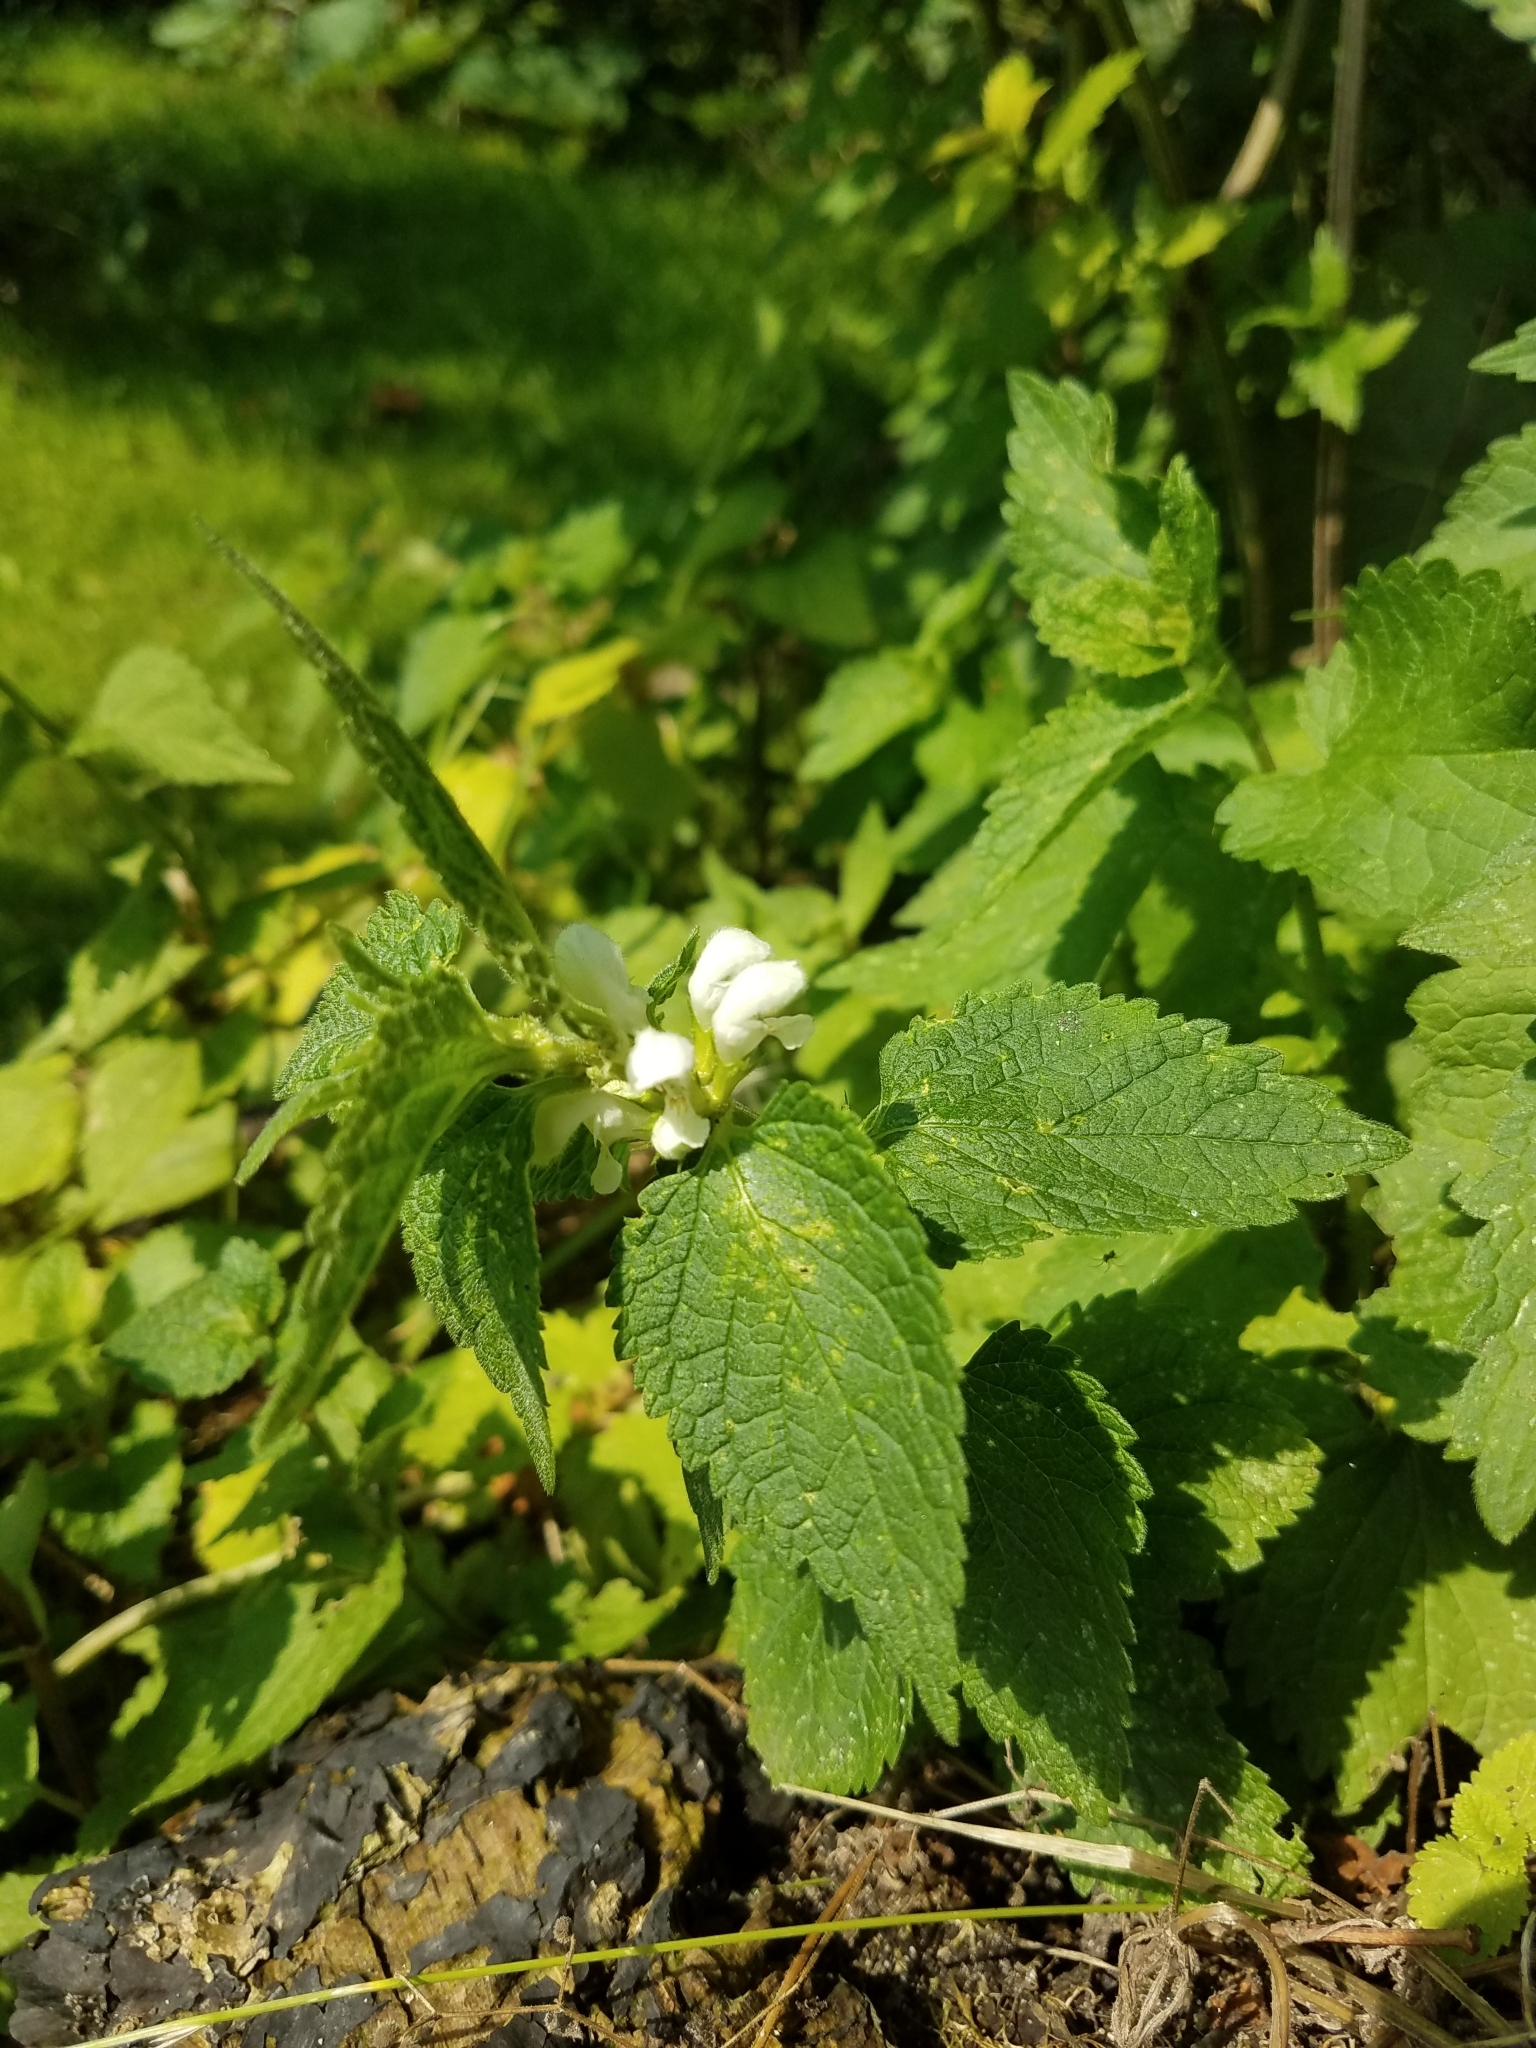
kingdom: Plantae
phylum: Tracheophyta
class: Magnoliopsida
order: Lamiales
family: Lamiaceae
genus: Lamium
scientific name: Lamium album
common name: White dead-nettle
